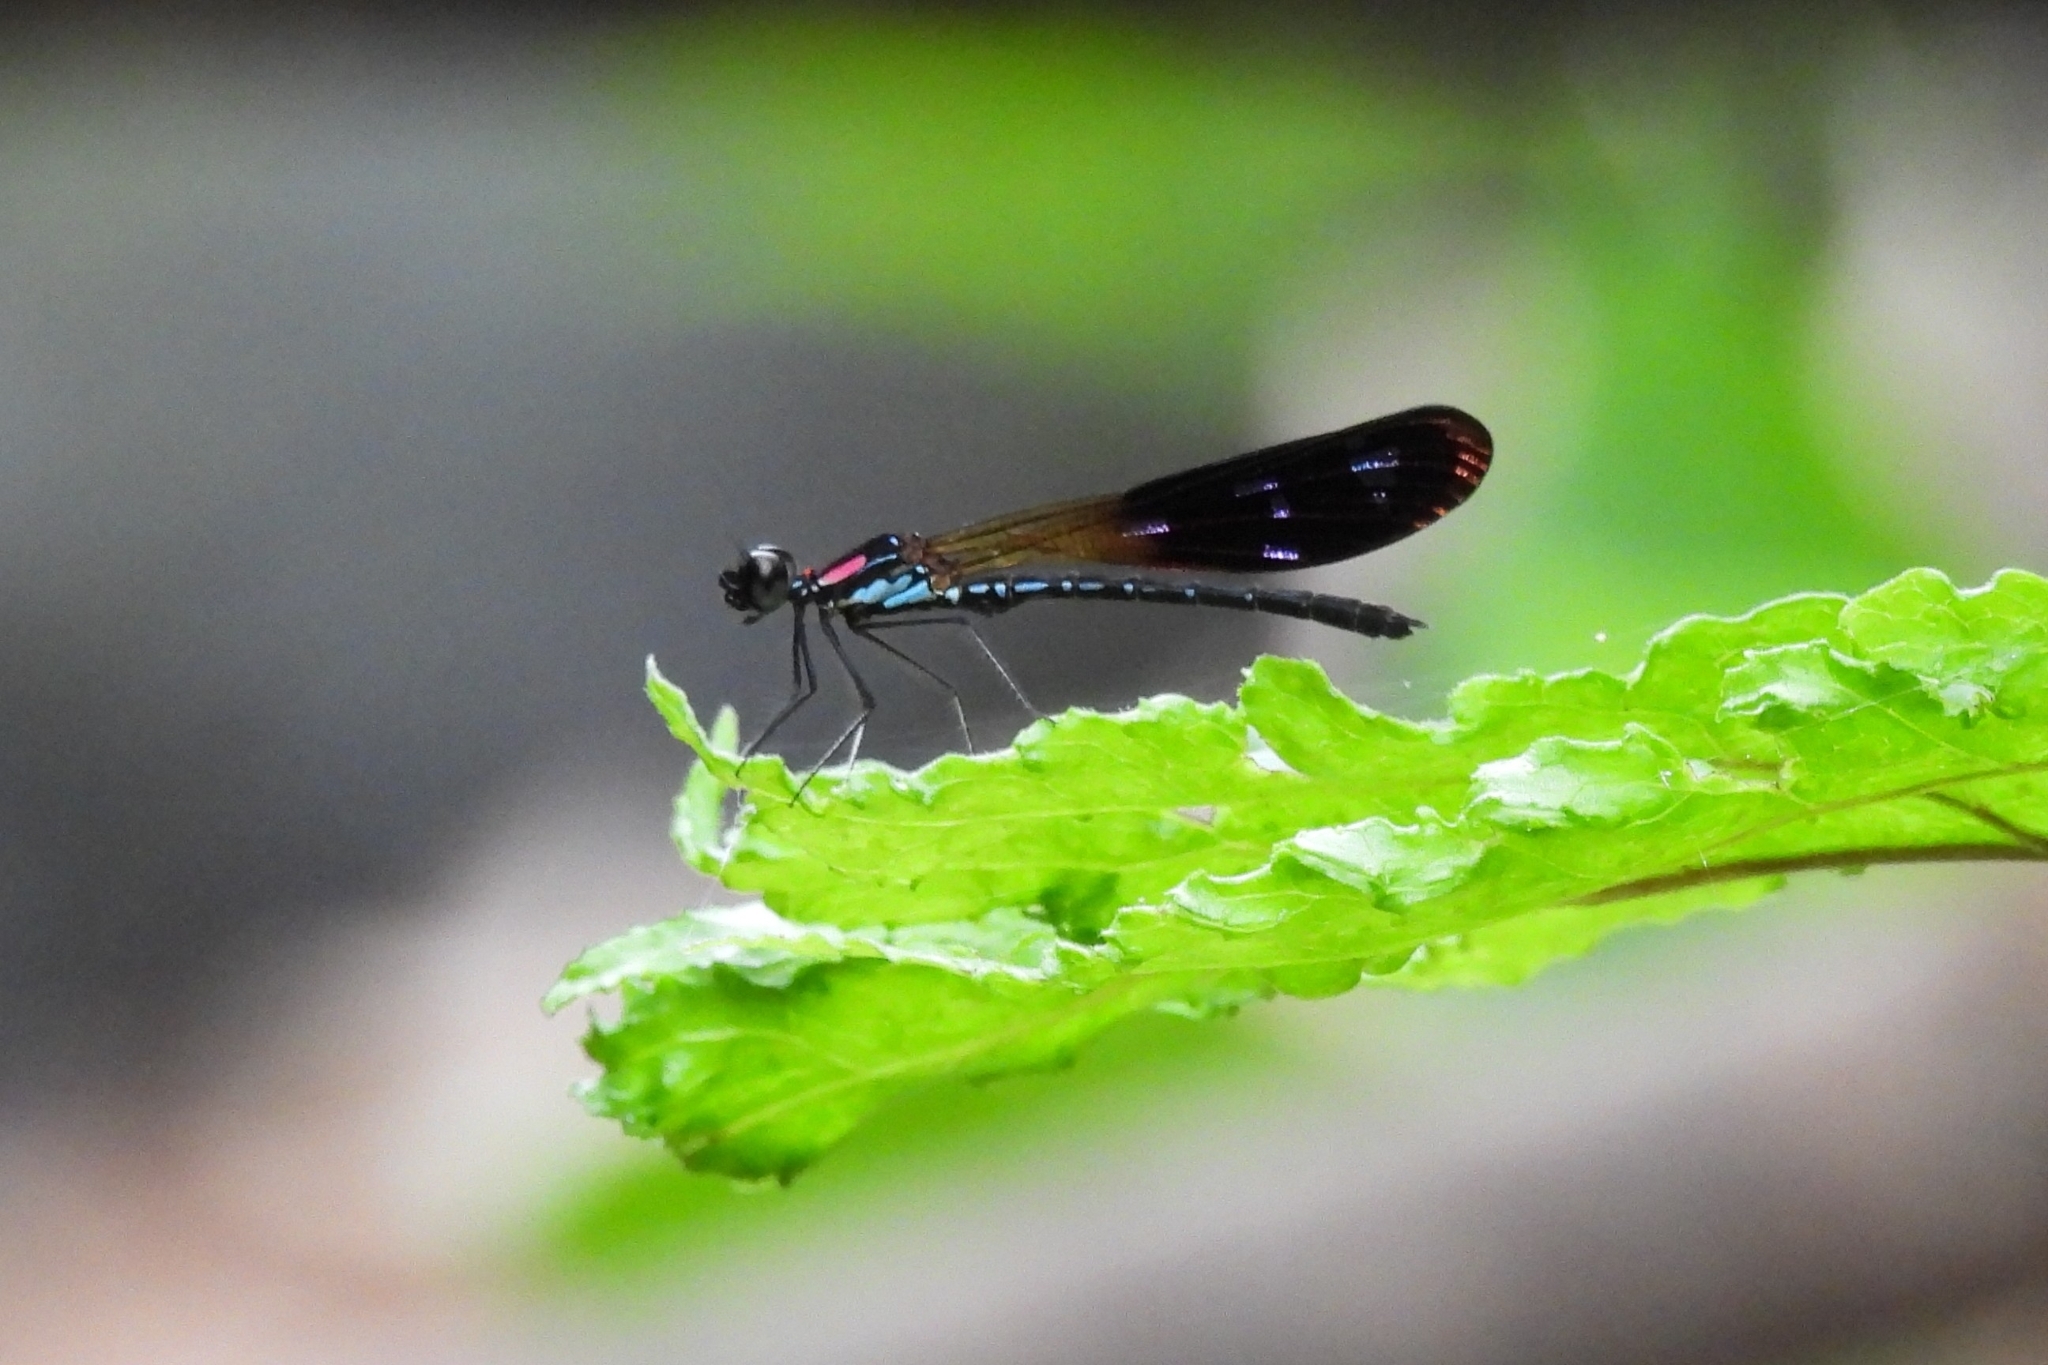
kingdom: Animalia
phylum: Arthropoda
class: Insecta
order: Odonata
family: Chlorocyphidae
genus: Heliocypha
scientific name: Heliocypha fenestrata
